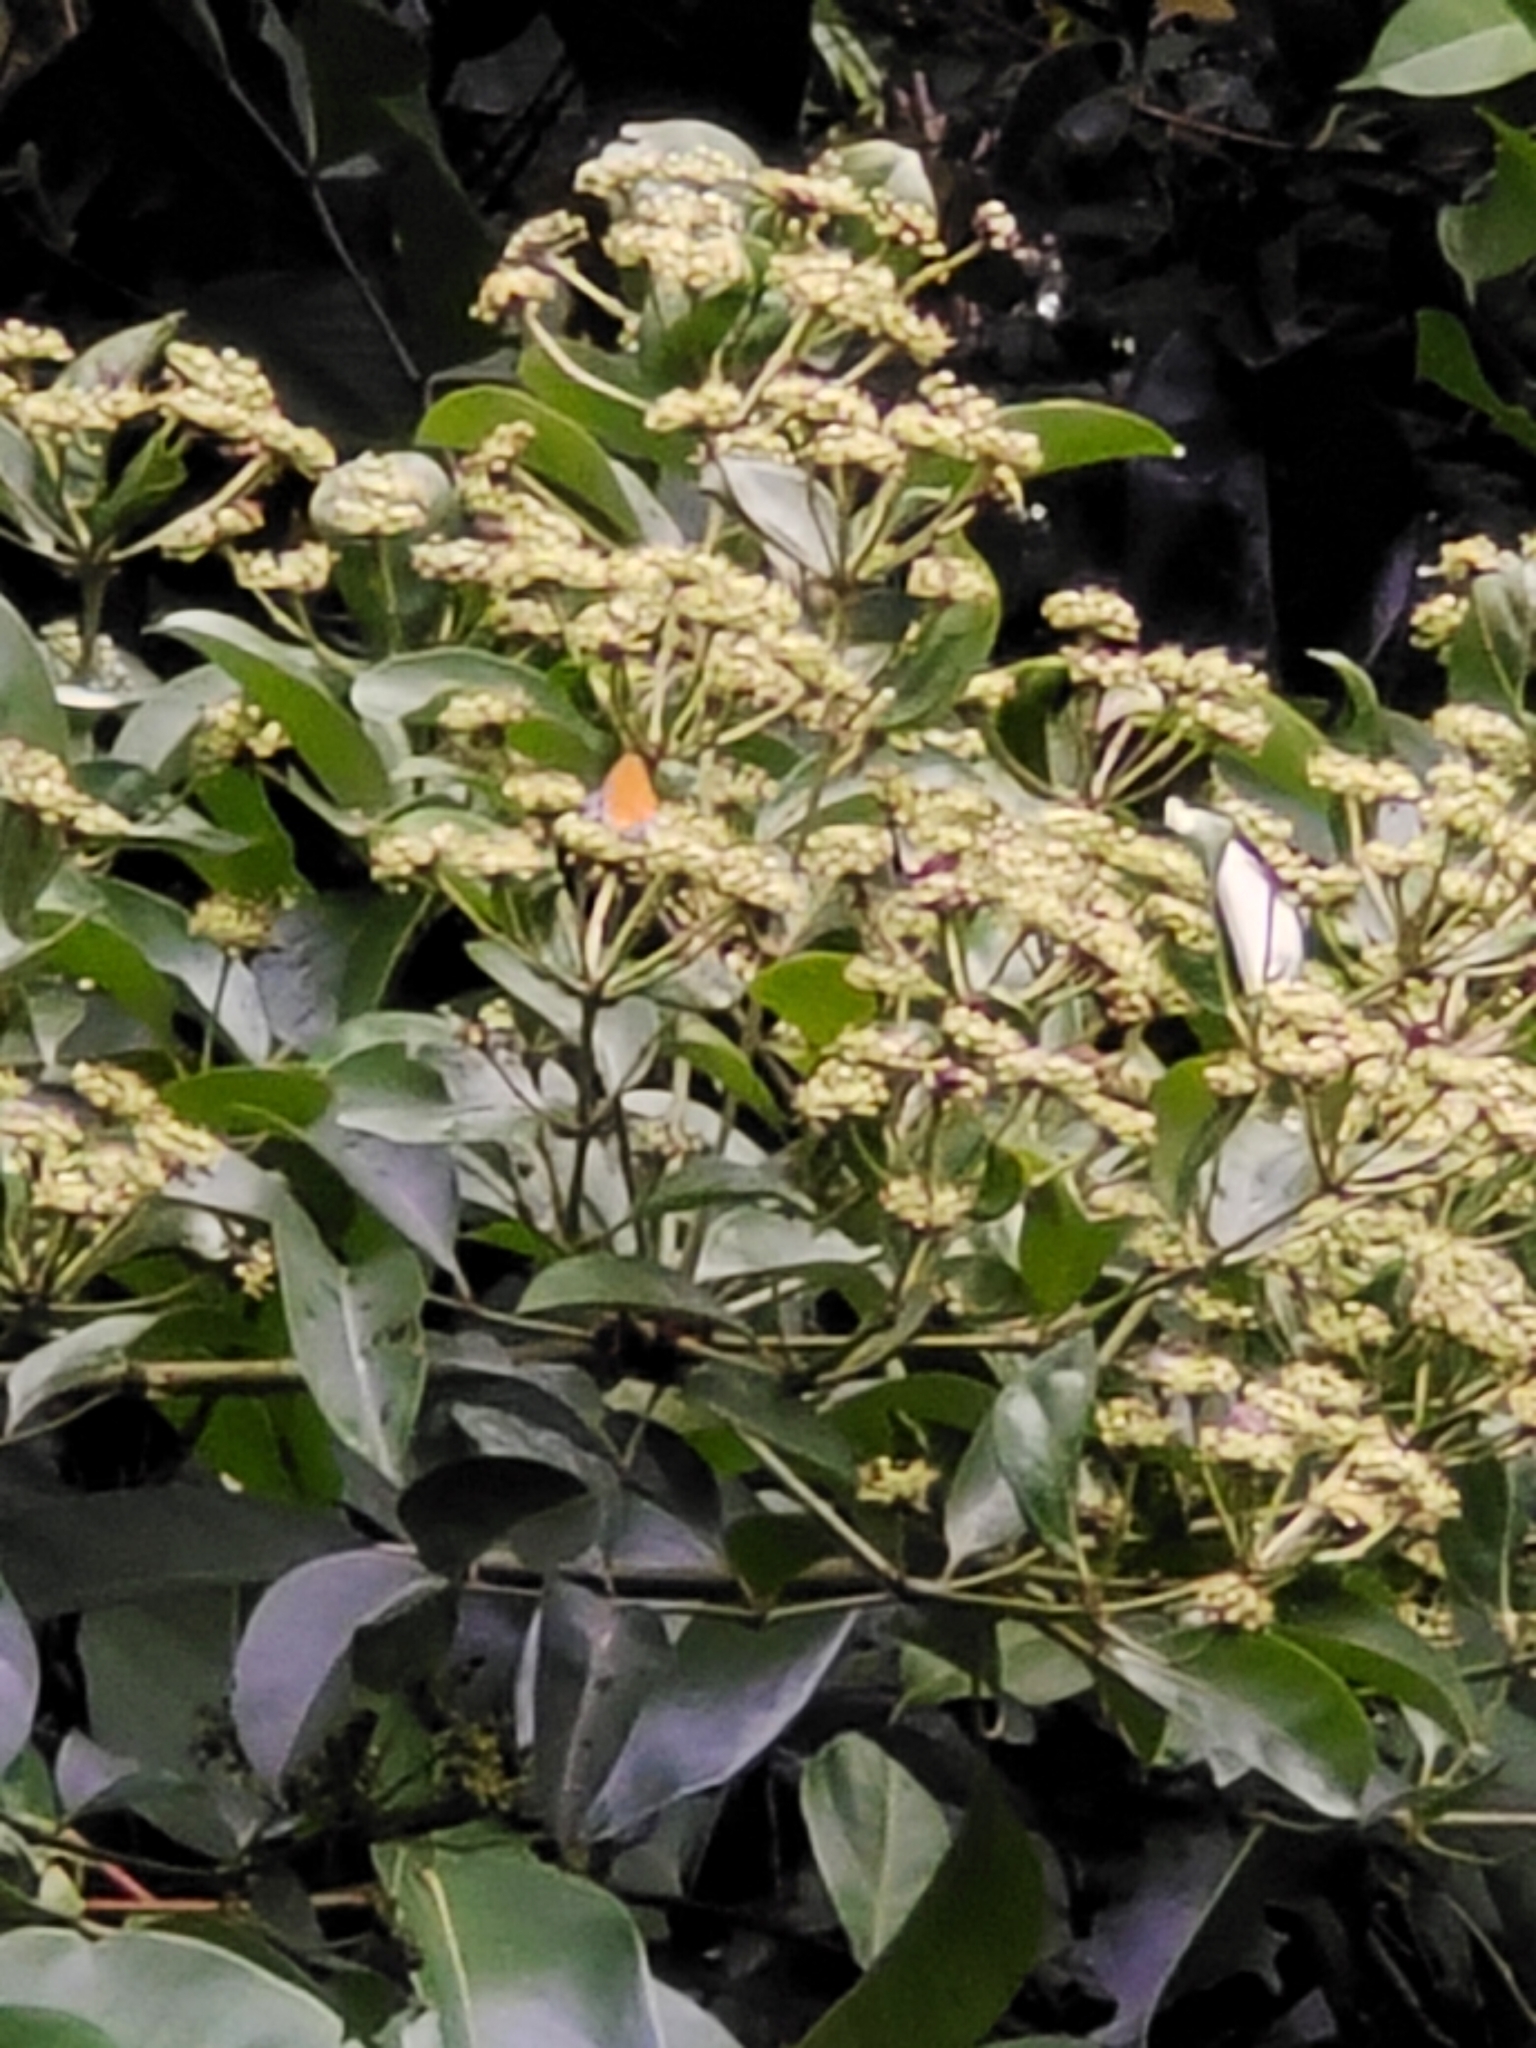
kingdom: Animalia
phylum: Arthropoda
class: Insecta
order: Lepidoptera
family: Lycaenidae
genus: Pseudomyrina
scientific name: Pseudomyrina
